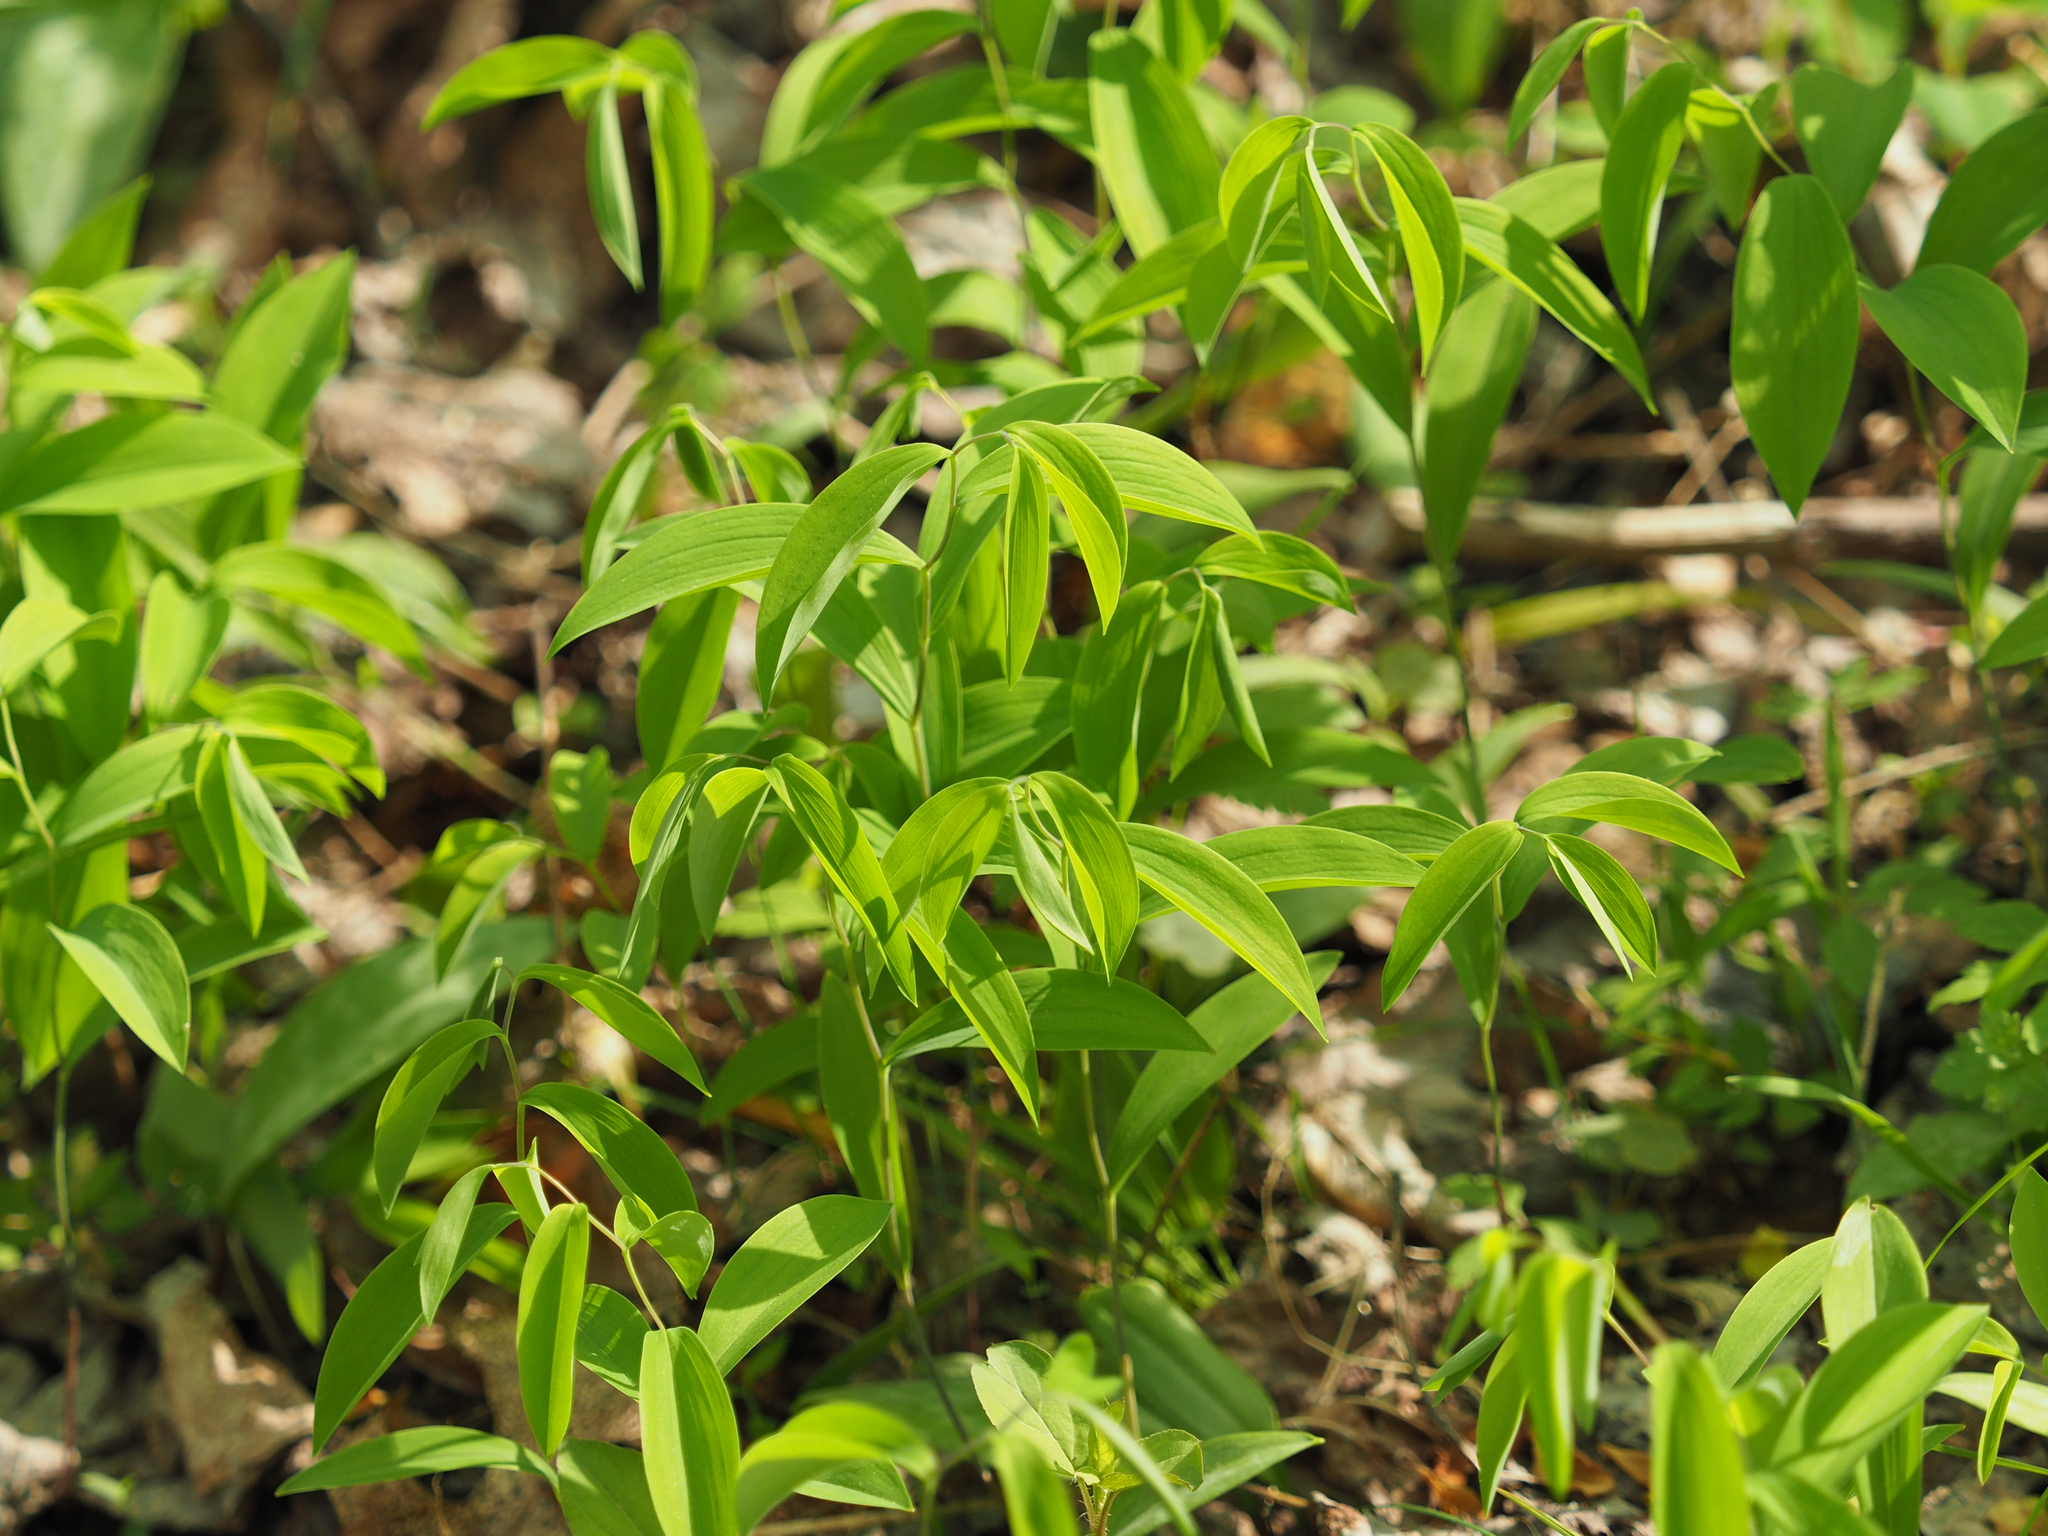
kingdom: Plantae
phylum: Tracheophyta
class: Liliopsida
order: Liliales
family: Colchicaceae
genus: Uvularia
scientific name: Uvularia sessilifolia
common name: Straw-lily
